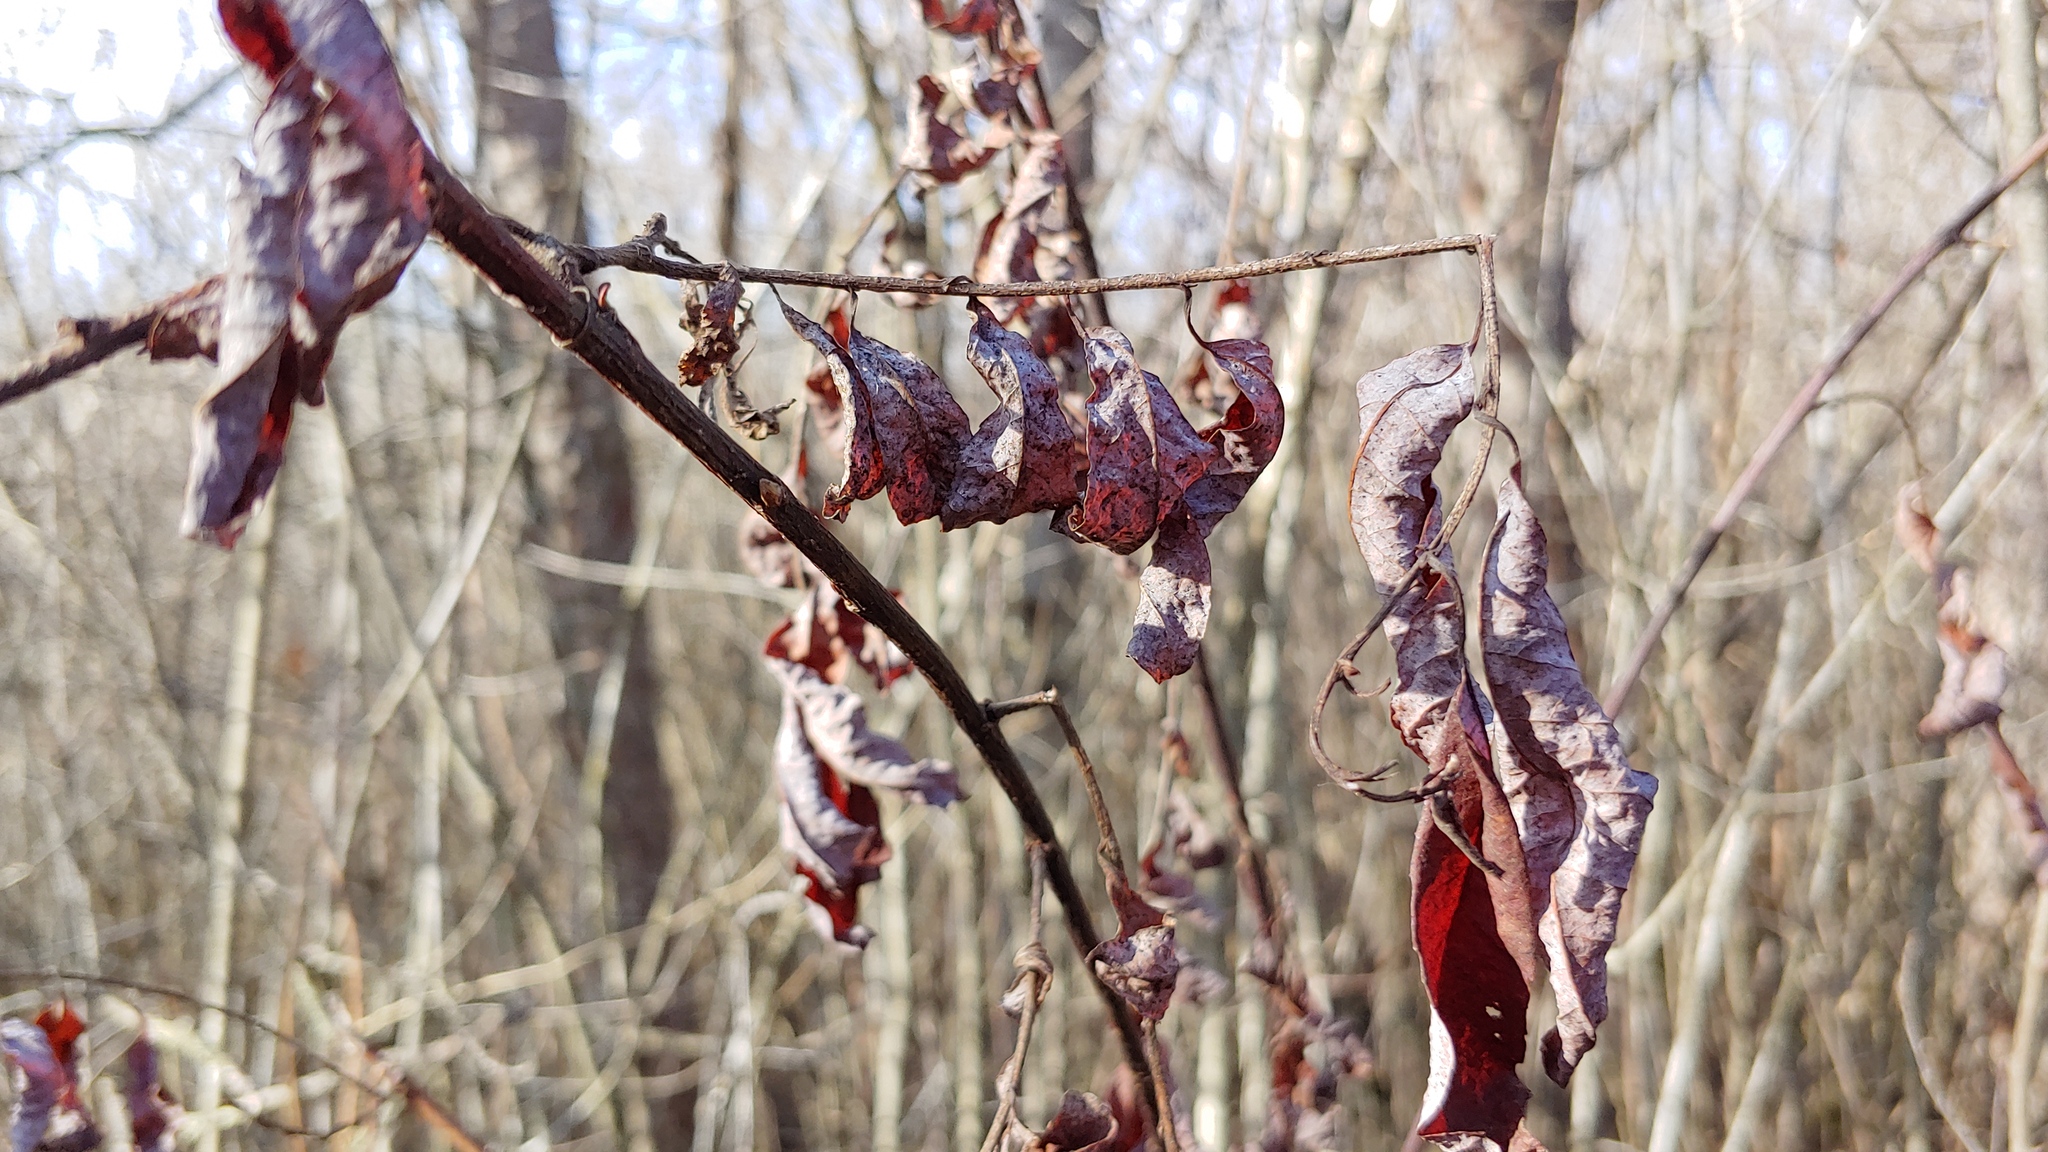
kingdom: Plantae
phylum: Tracheophyta
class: Magnoliopsida
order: Sapindales
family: Anacardiaceae
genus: Toxicodendron
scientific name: Toxicodendron vernix
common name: Poison sumac
